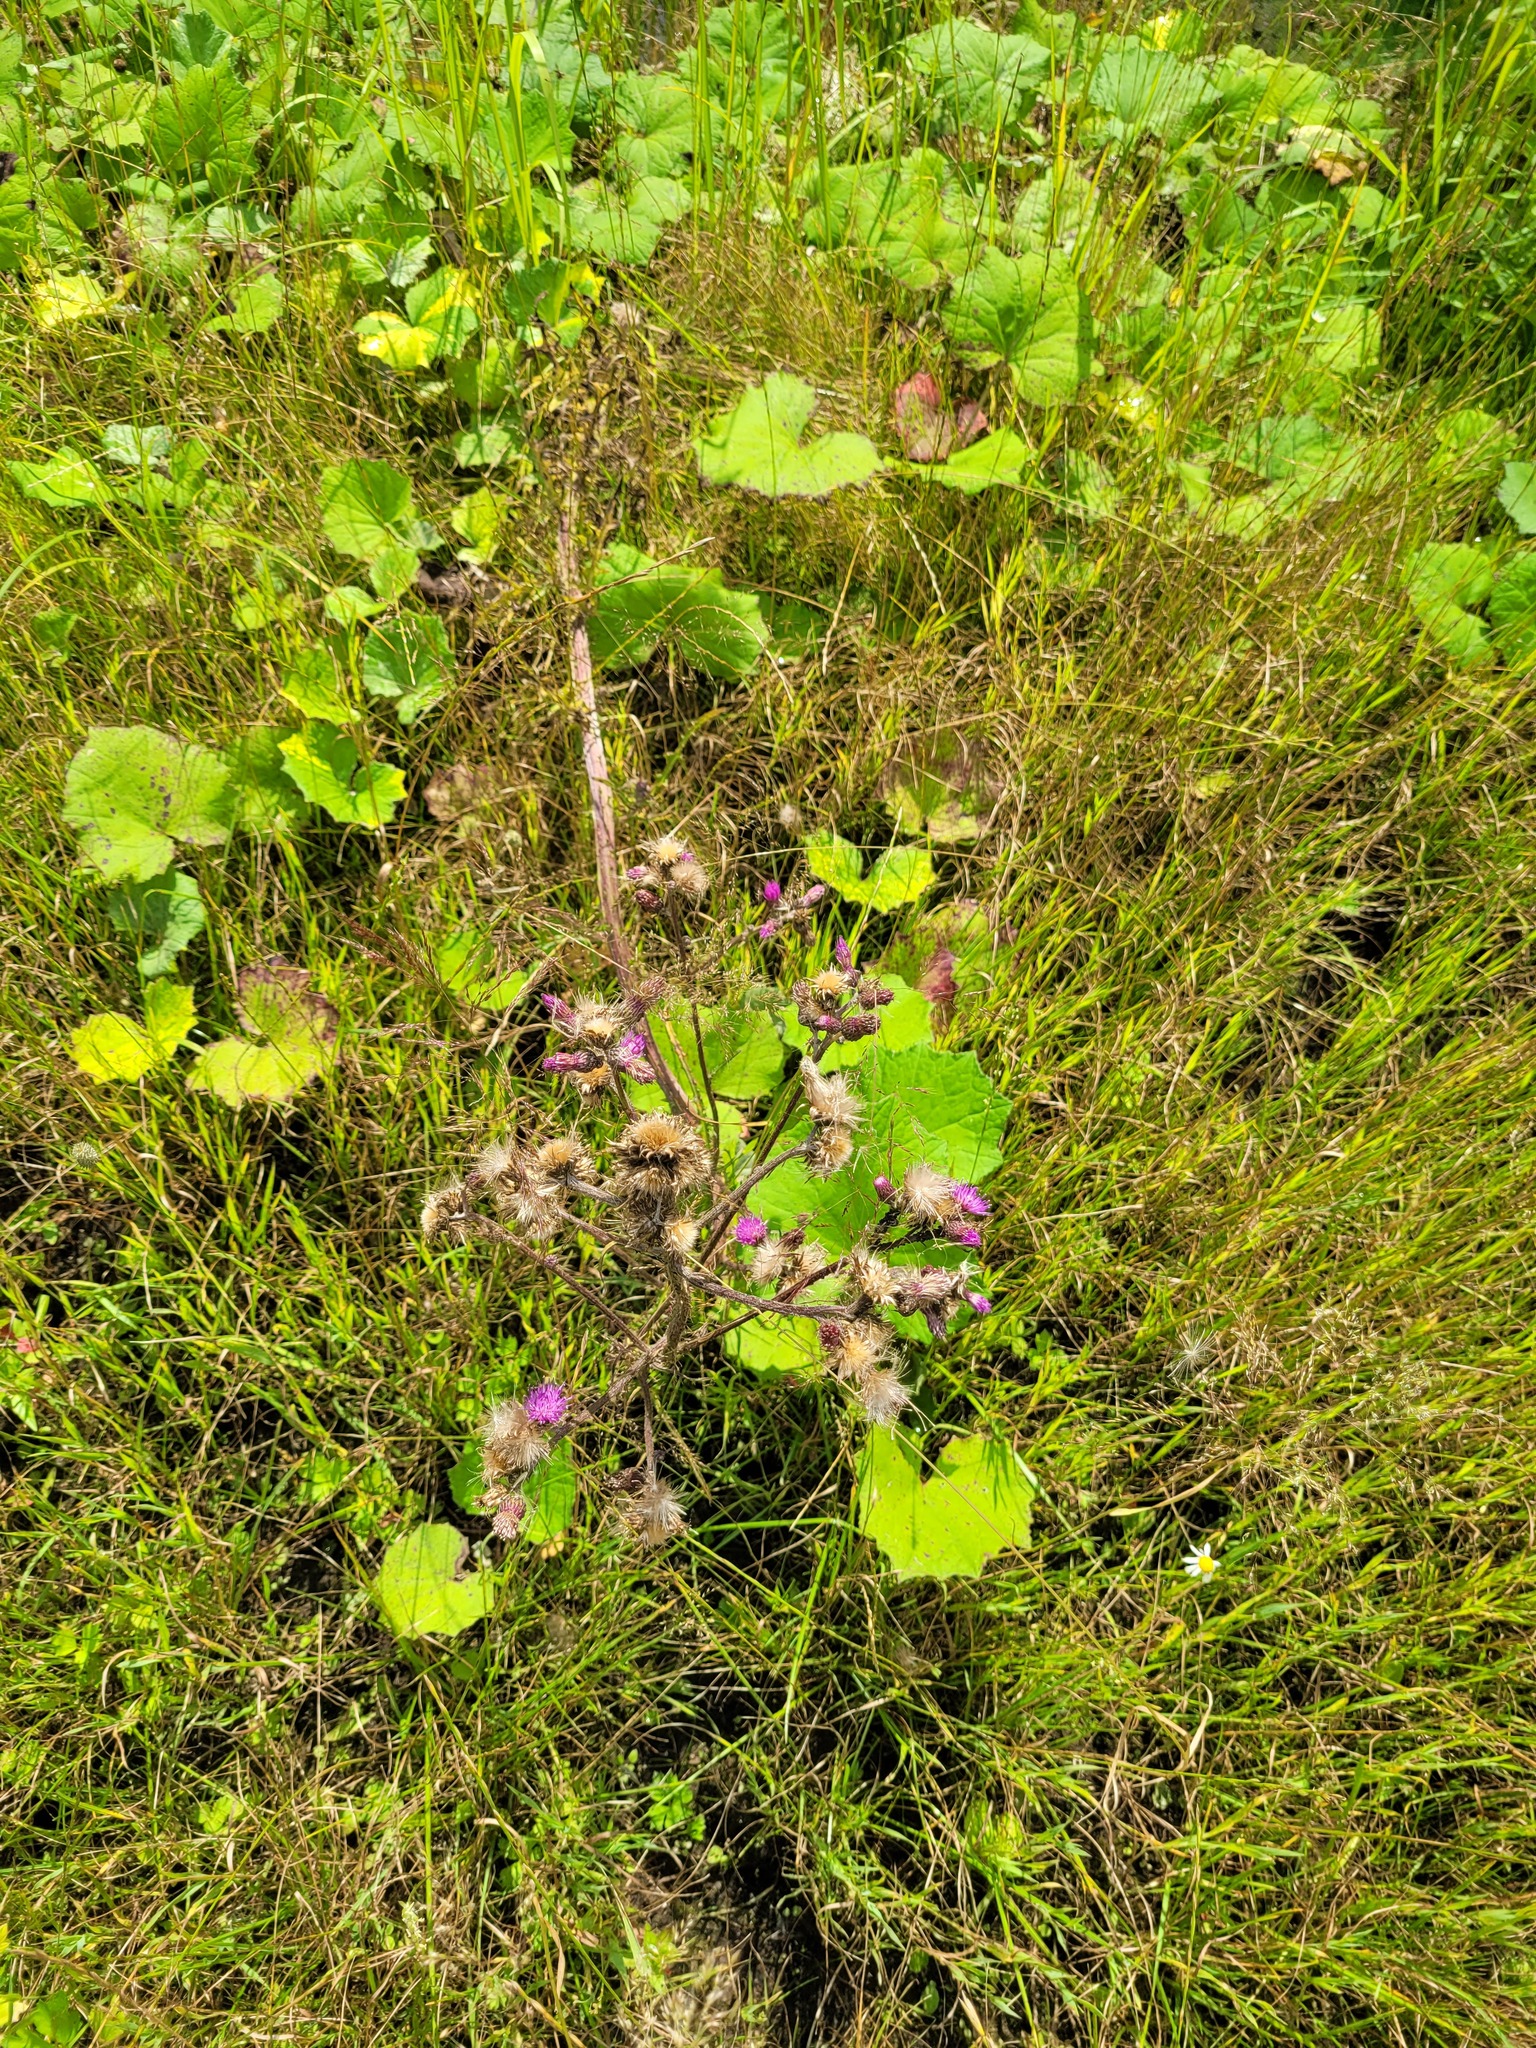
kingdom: Plantae
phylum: Tracheophyta
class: Magnoliopsida
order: Asterales
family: Asteraceae
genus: Cirsium
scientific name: Cirsium palustre
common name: Marsh thistle
